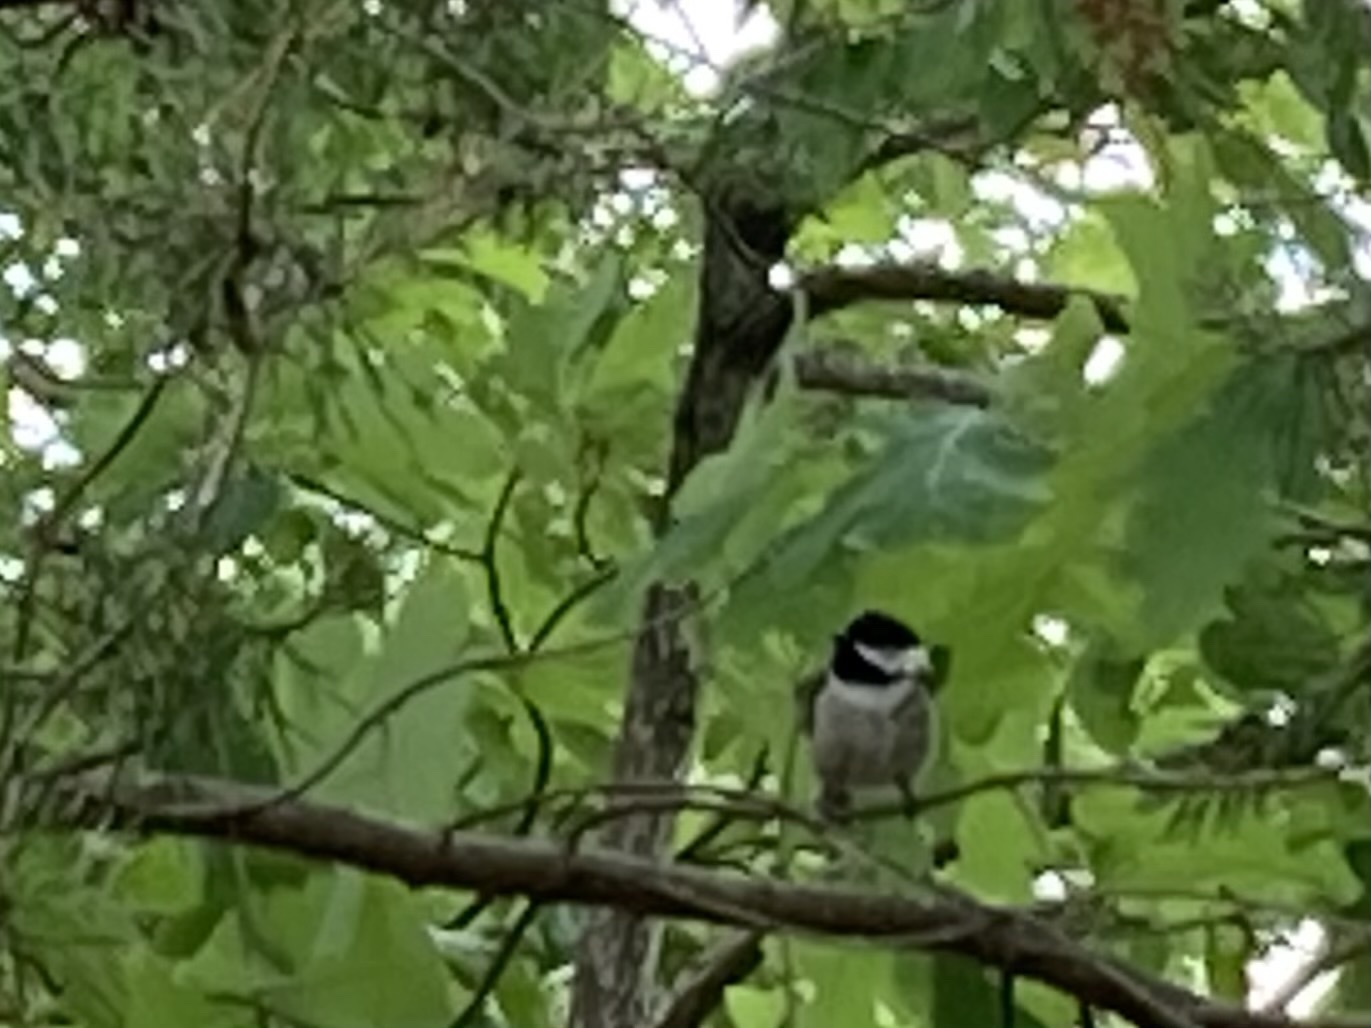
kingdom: Animalia
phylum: Chordata
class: Aves
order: Passeriformes
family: Paridae
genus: Poecile
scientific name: Poecile carolinensis
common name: Carolina chickadee
